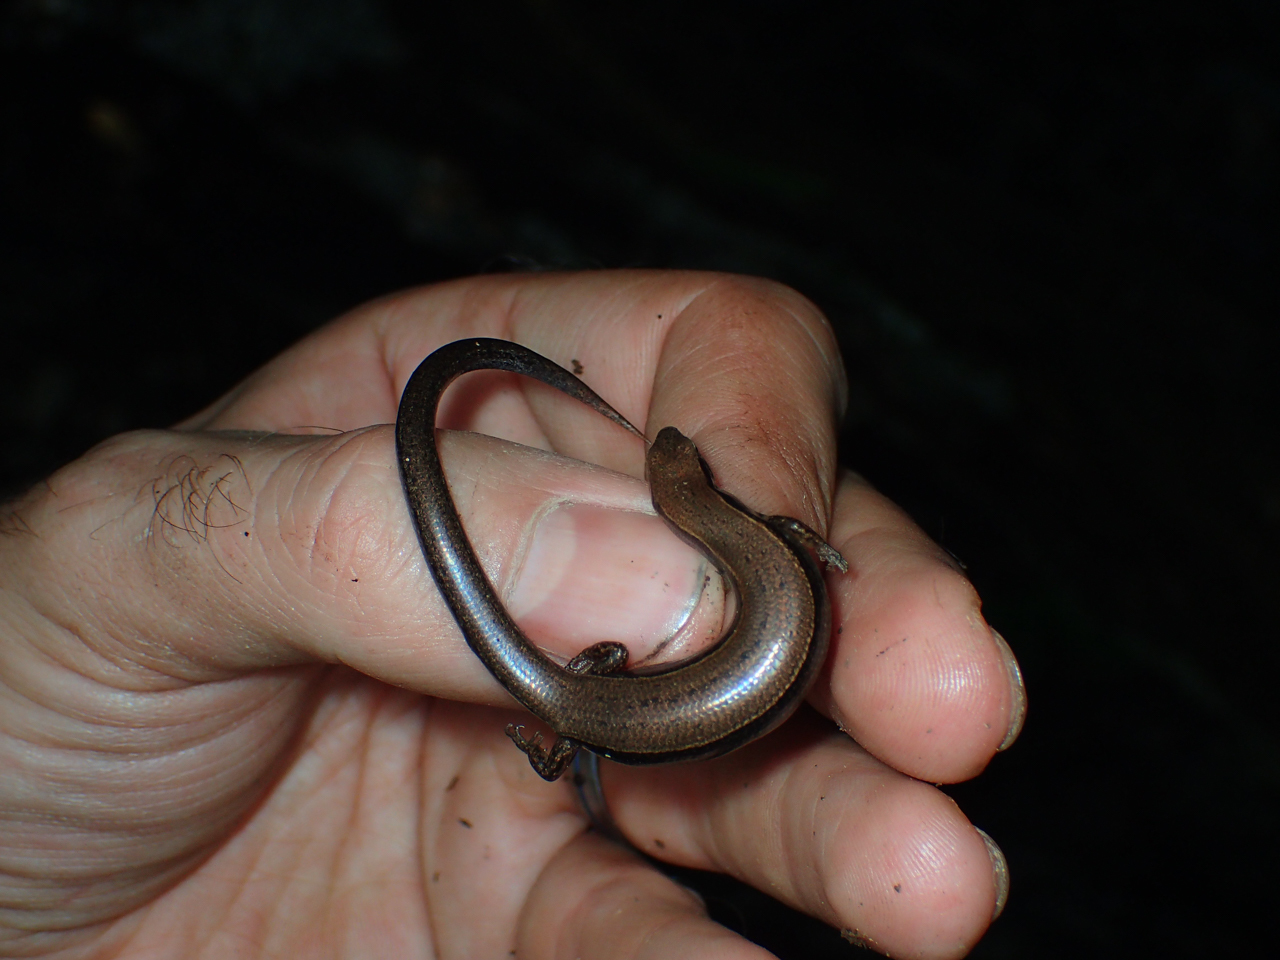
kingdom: Animalia
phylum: Chordata
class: Squamata
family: Scincidae
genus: Scincella
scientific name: Scincella lateralis
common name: Ground skink
